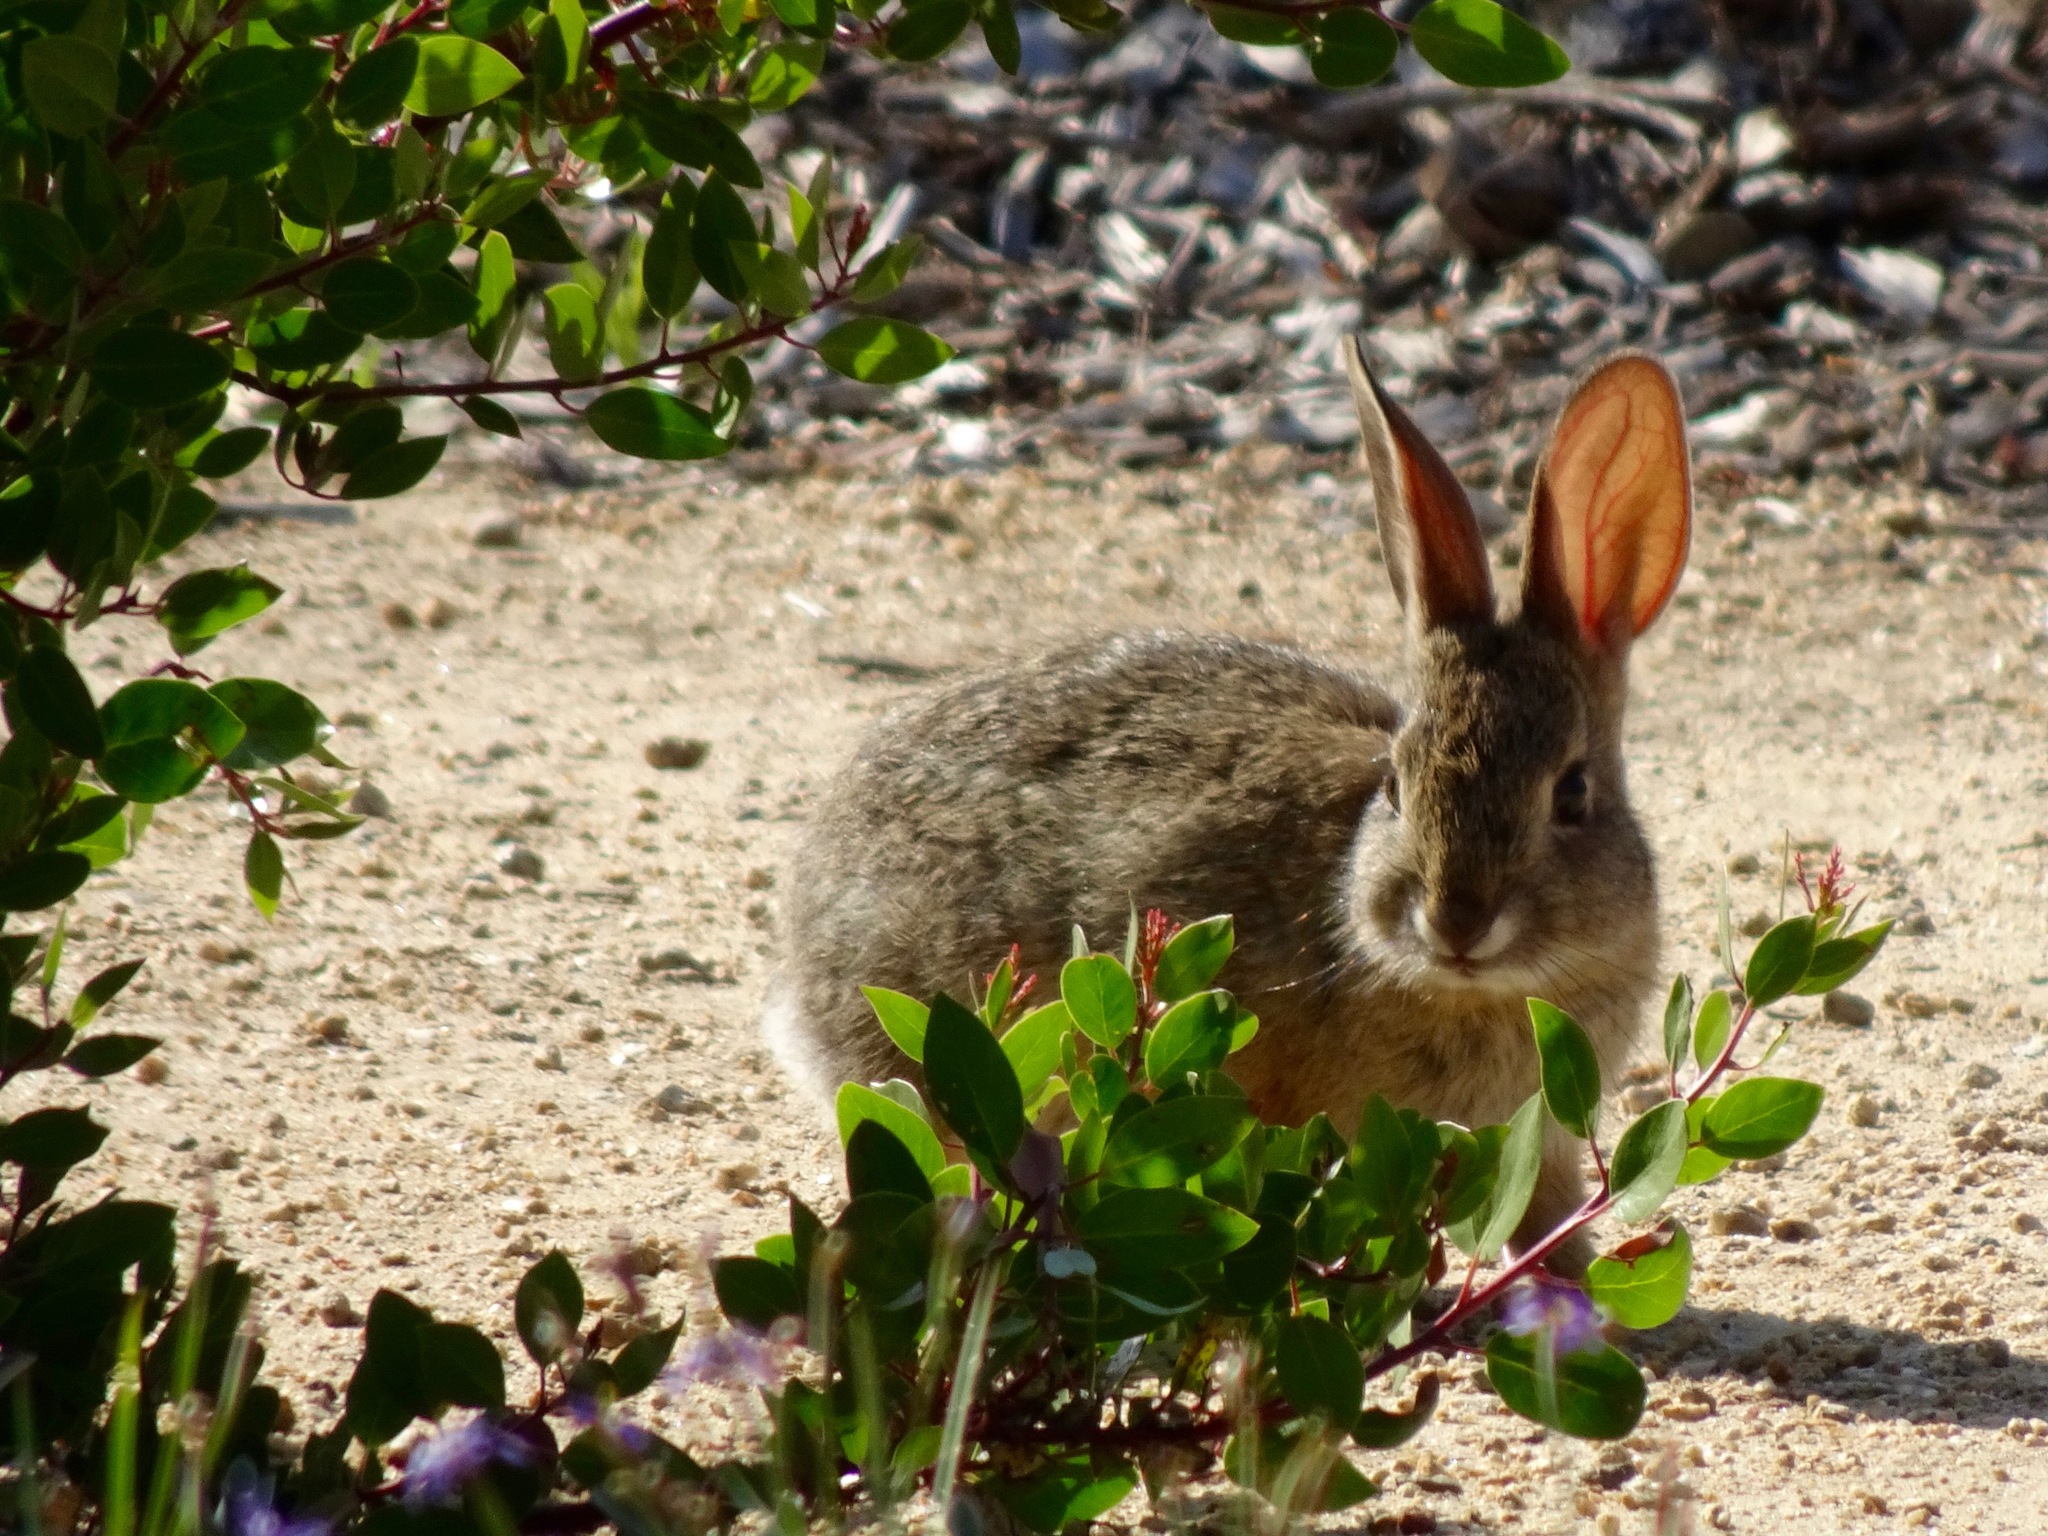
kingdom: Animalia
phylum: Chordata
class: Mammalia
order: Lagomorpha
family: Leporidae
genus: Sylvilagus
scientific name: Sylvilagus audubonii
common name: Desert cottontail
